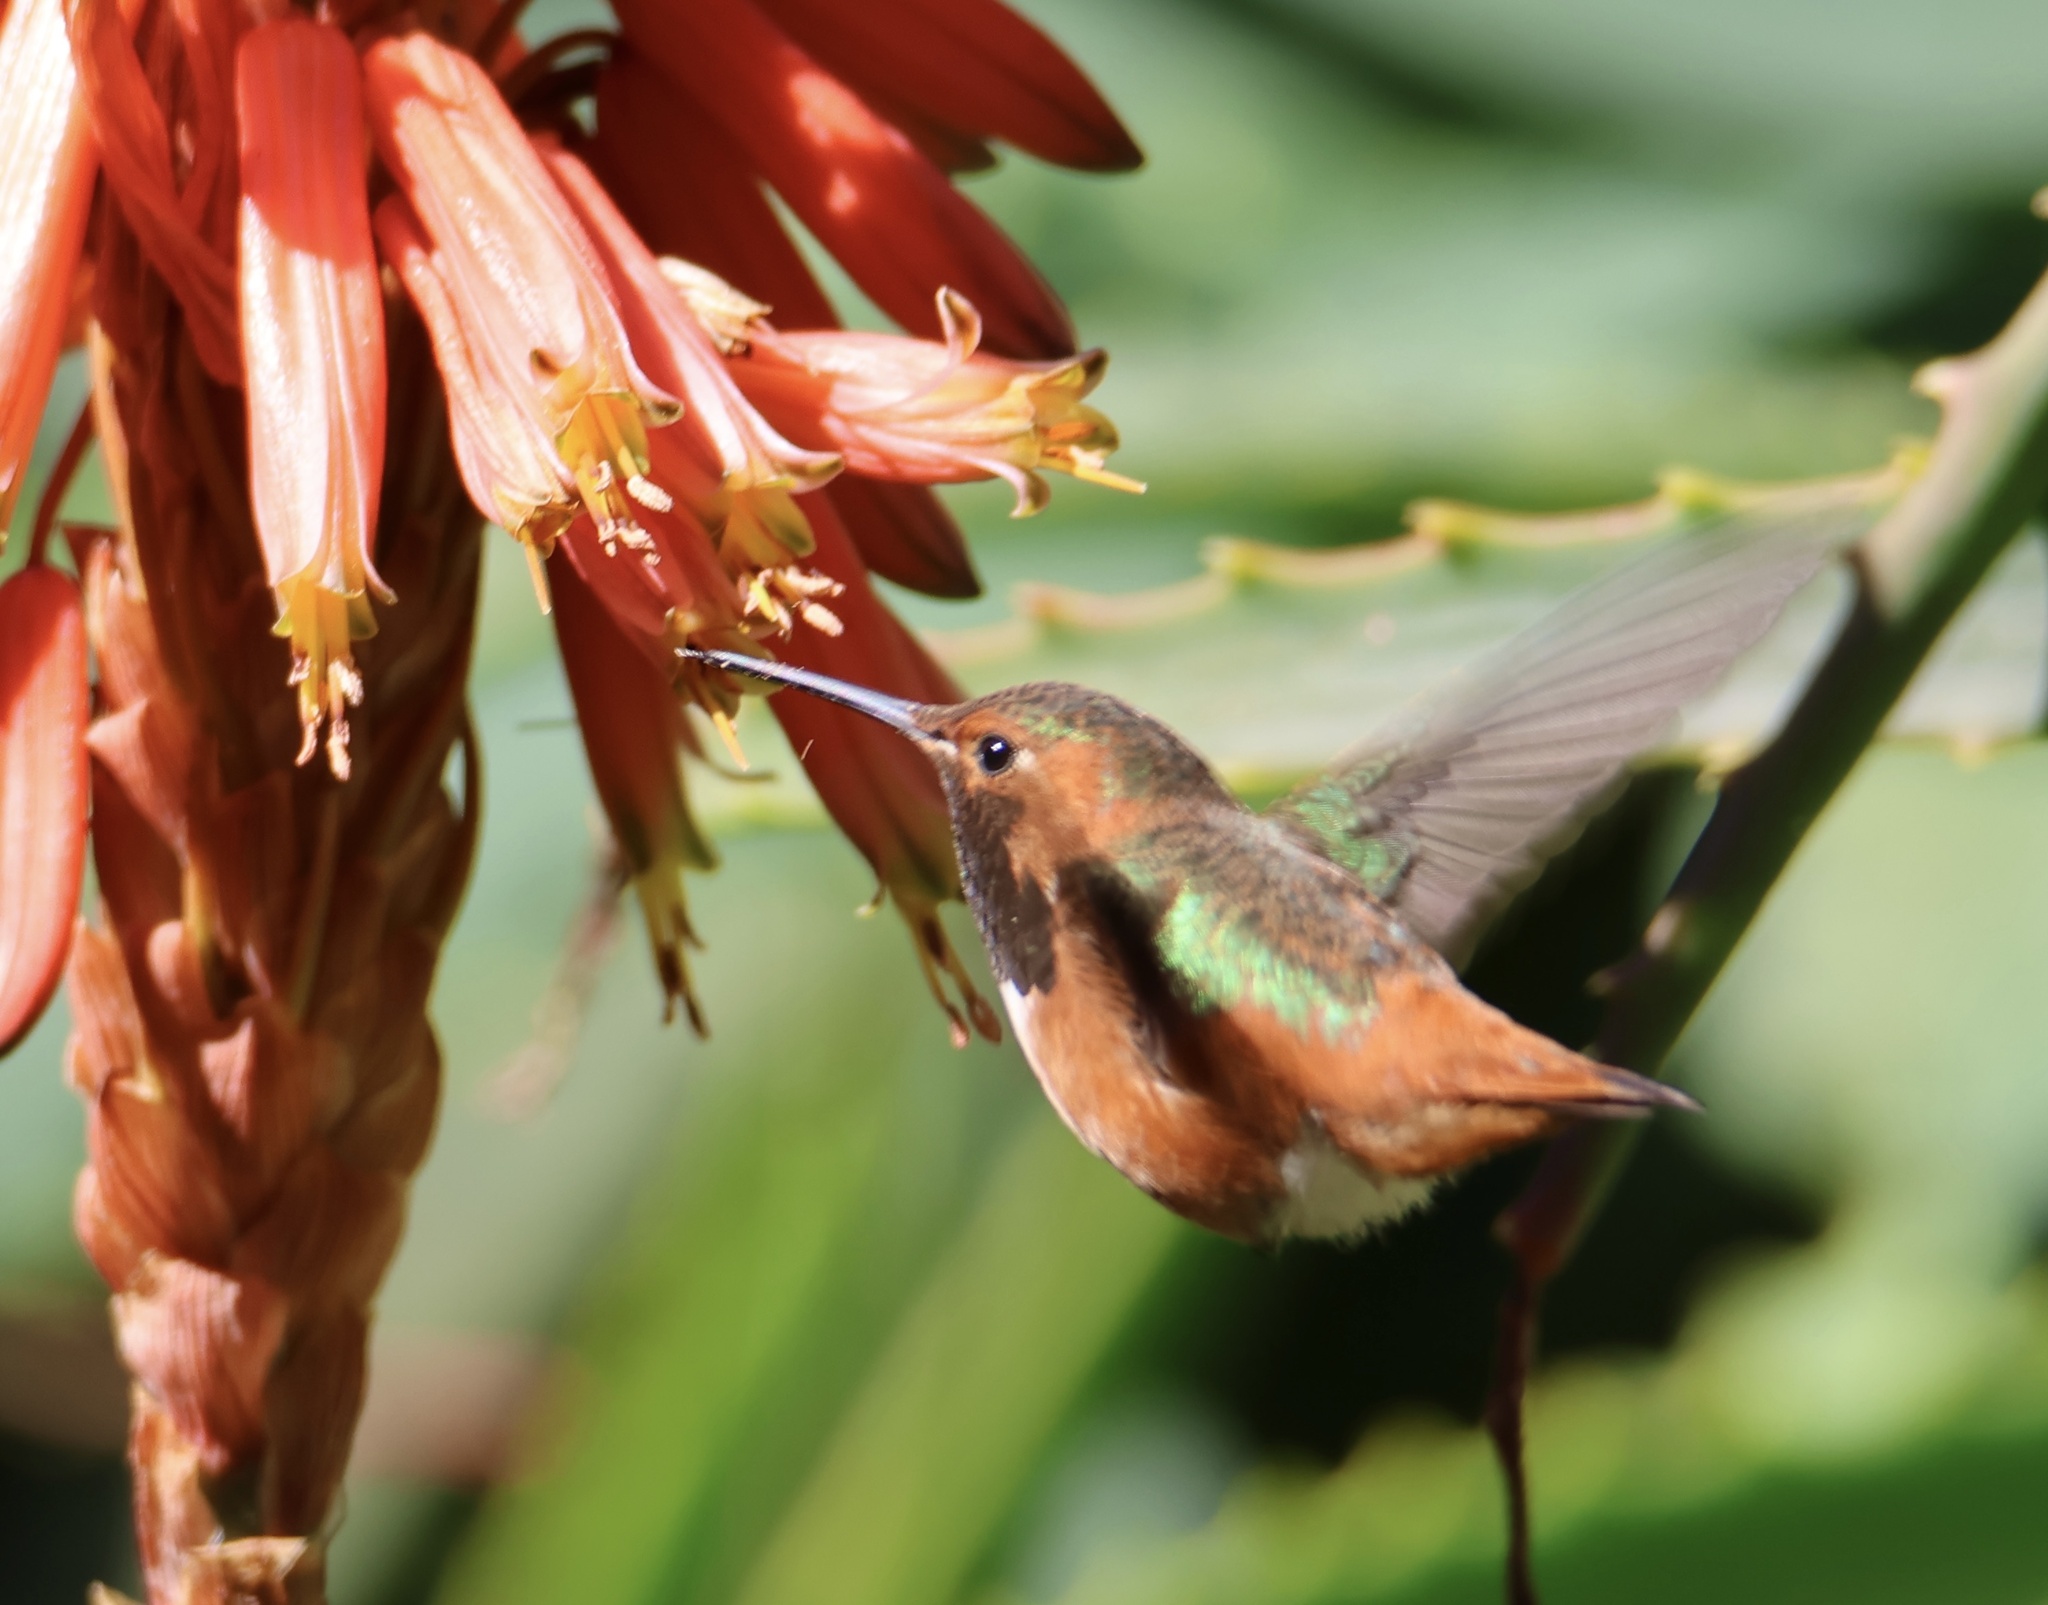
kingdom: Animalia
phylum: Chordata
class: Aves
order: Apodiformes
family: Trochilidae
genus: Selasphorus
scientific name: Selasphorus sasin
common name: Allen's hummingbird
